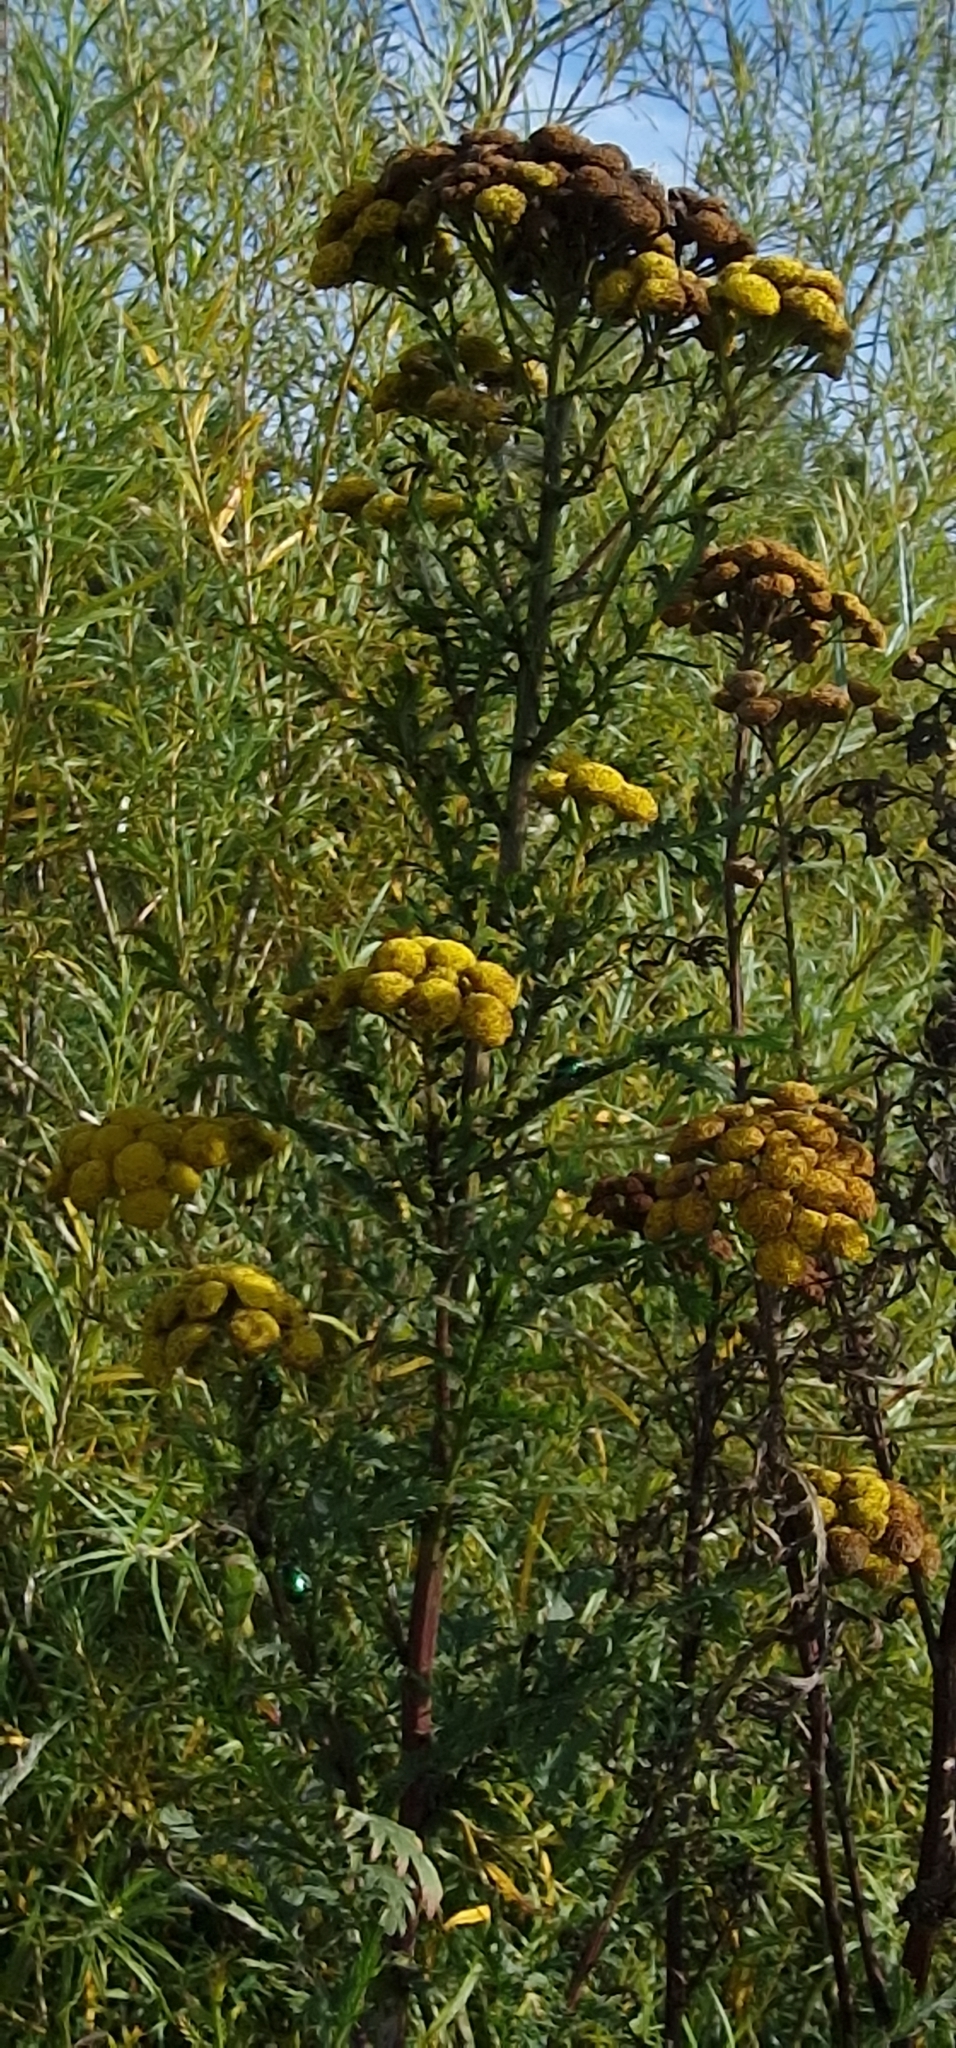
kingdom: Plantae
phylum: Tracheophyta
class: Magnoliopsida
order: Asterales
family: Asteraceae
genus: Tanacetum
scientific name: Tanacetum vulgare
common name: Common tansy
